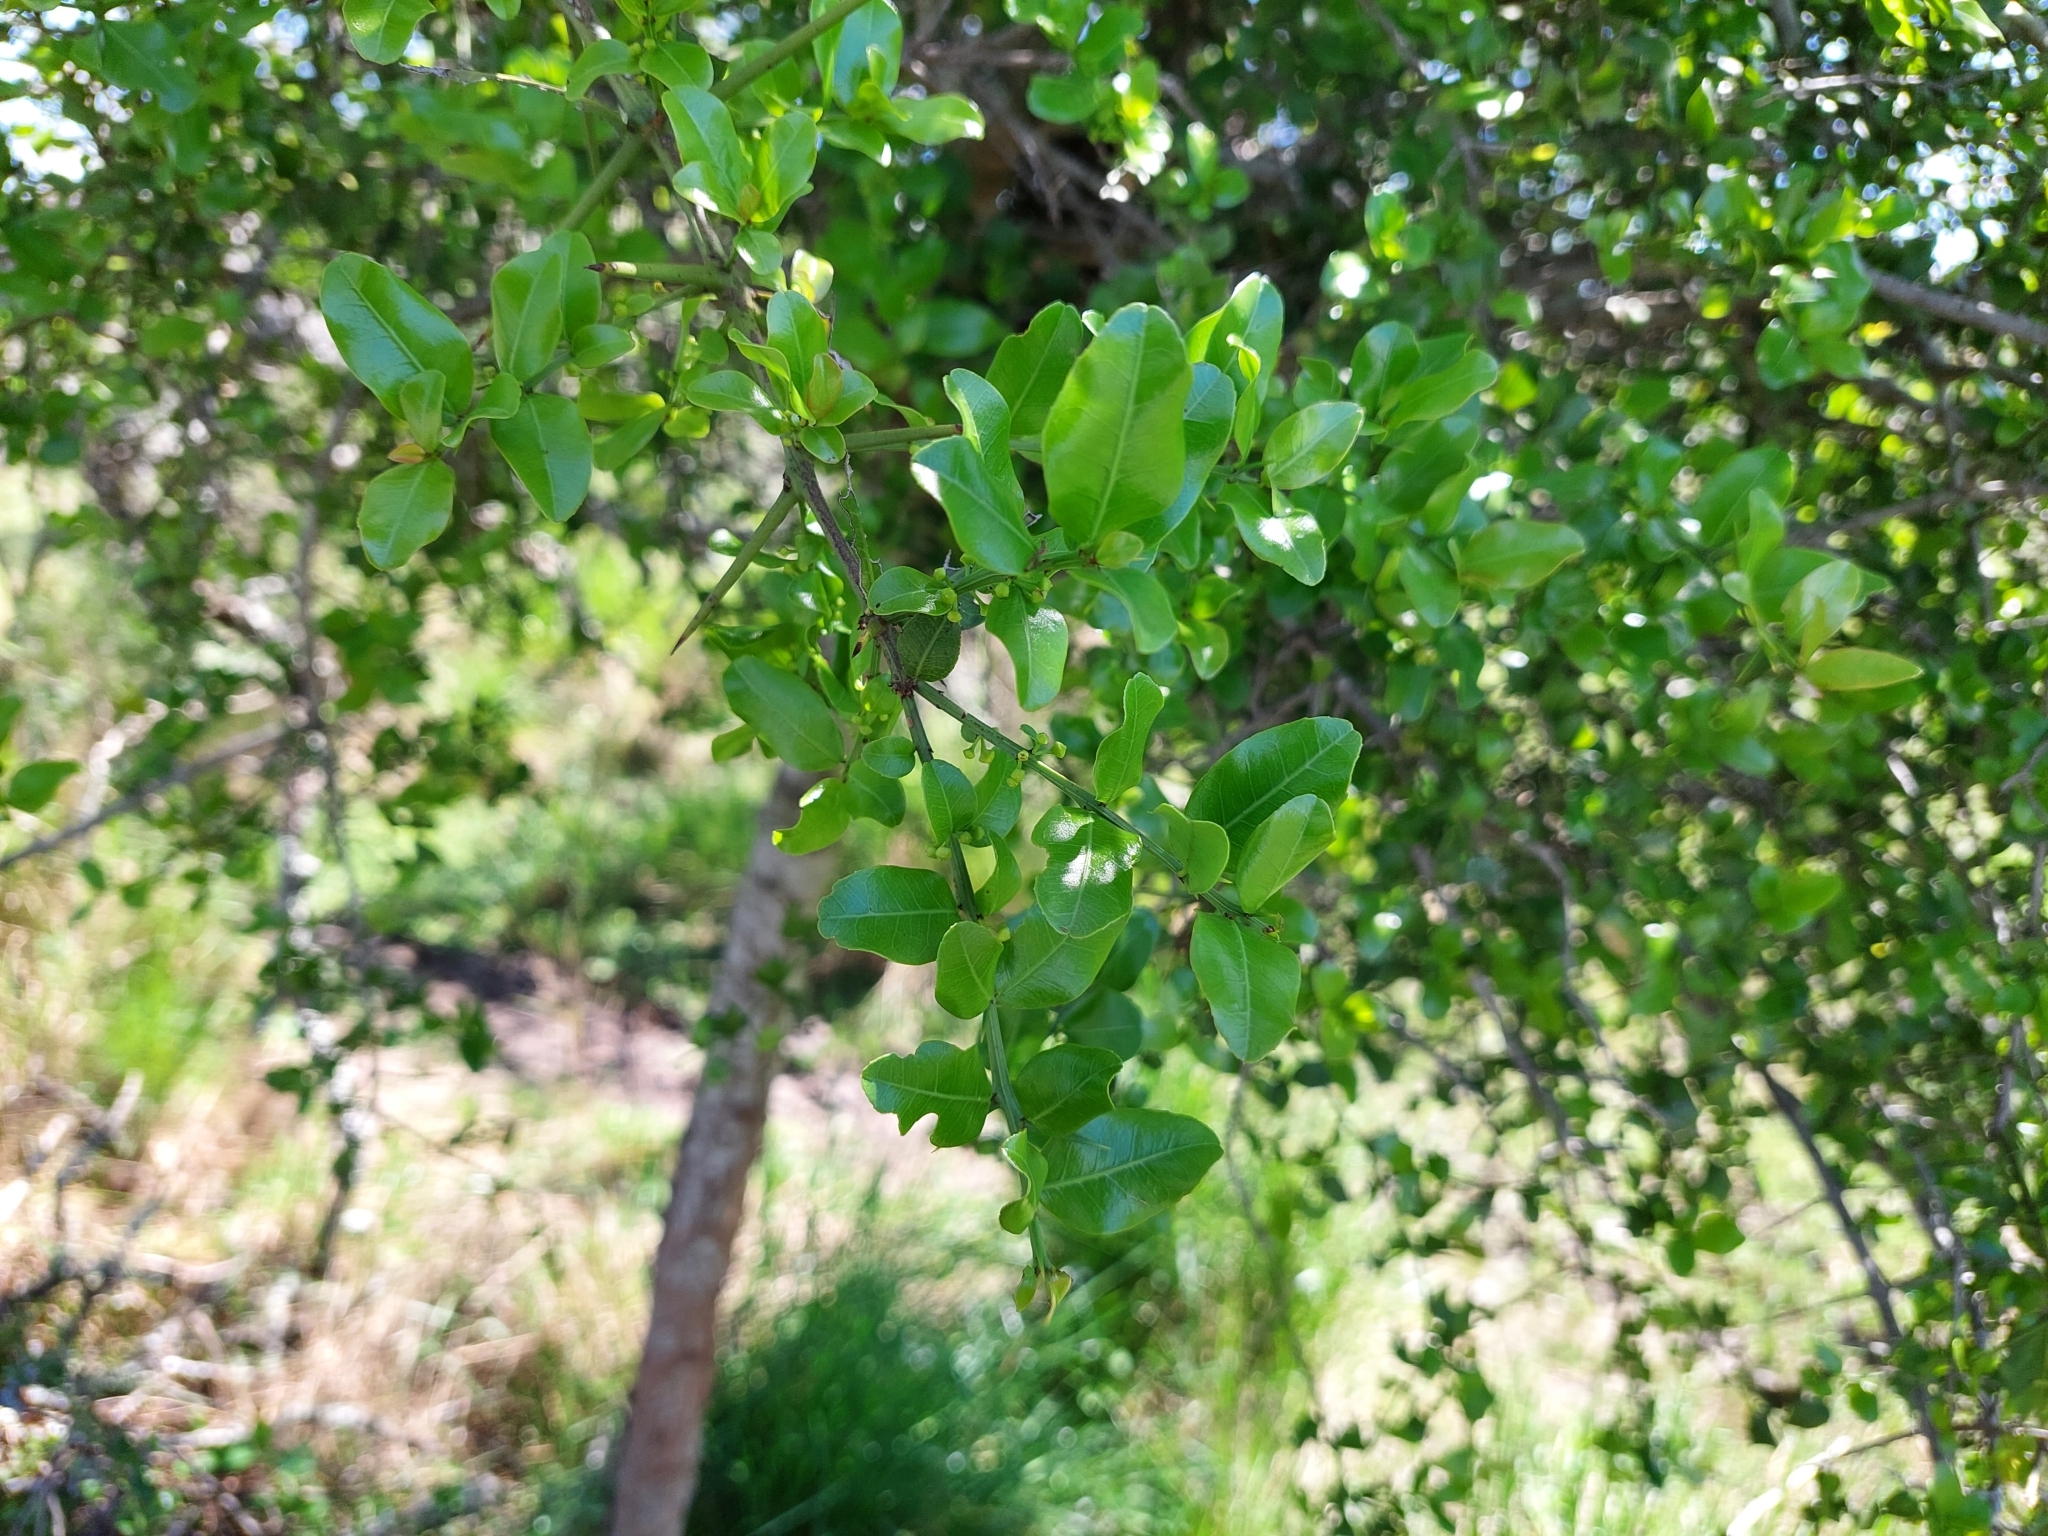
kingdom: Plantae
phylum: Tracheophyta
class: Magnoliopsida
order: Rosales
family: Rhamnaceae
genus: Scutia
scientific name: Scutia buxifolia
